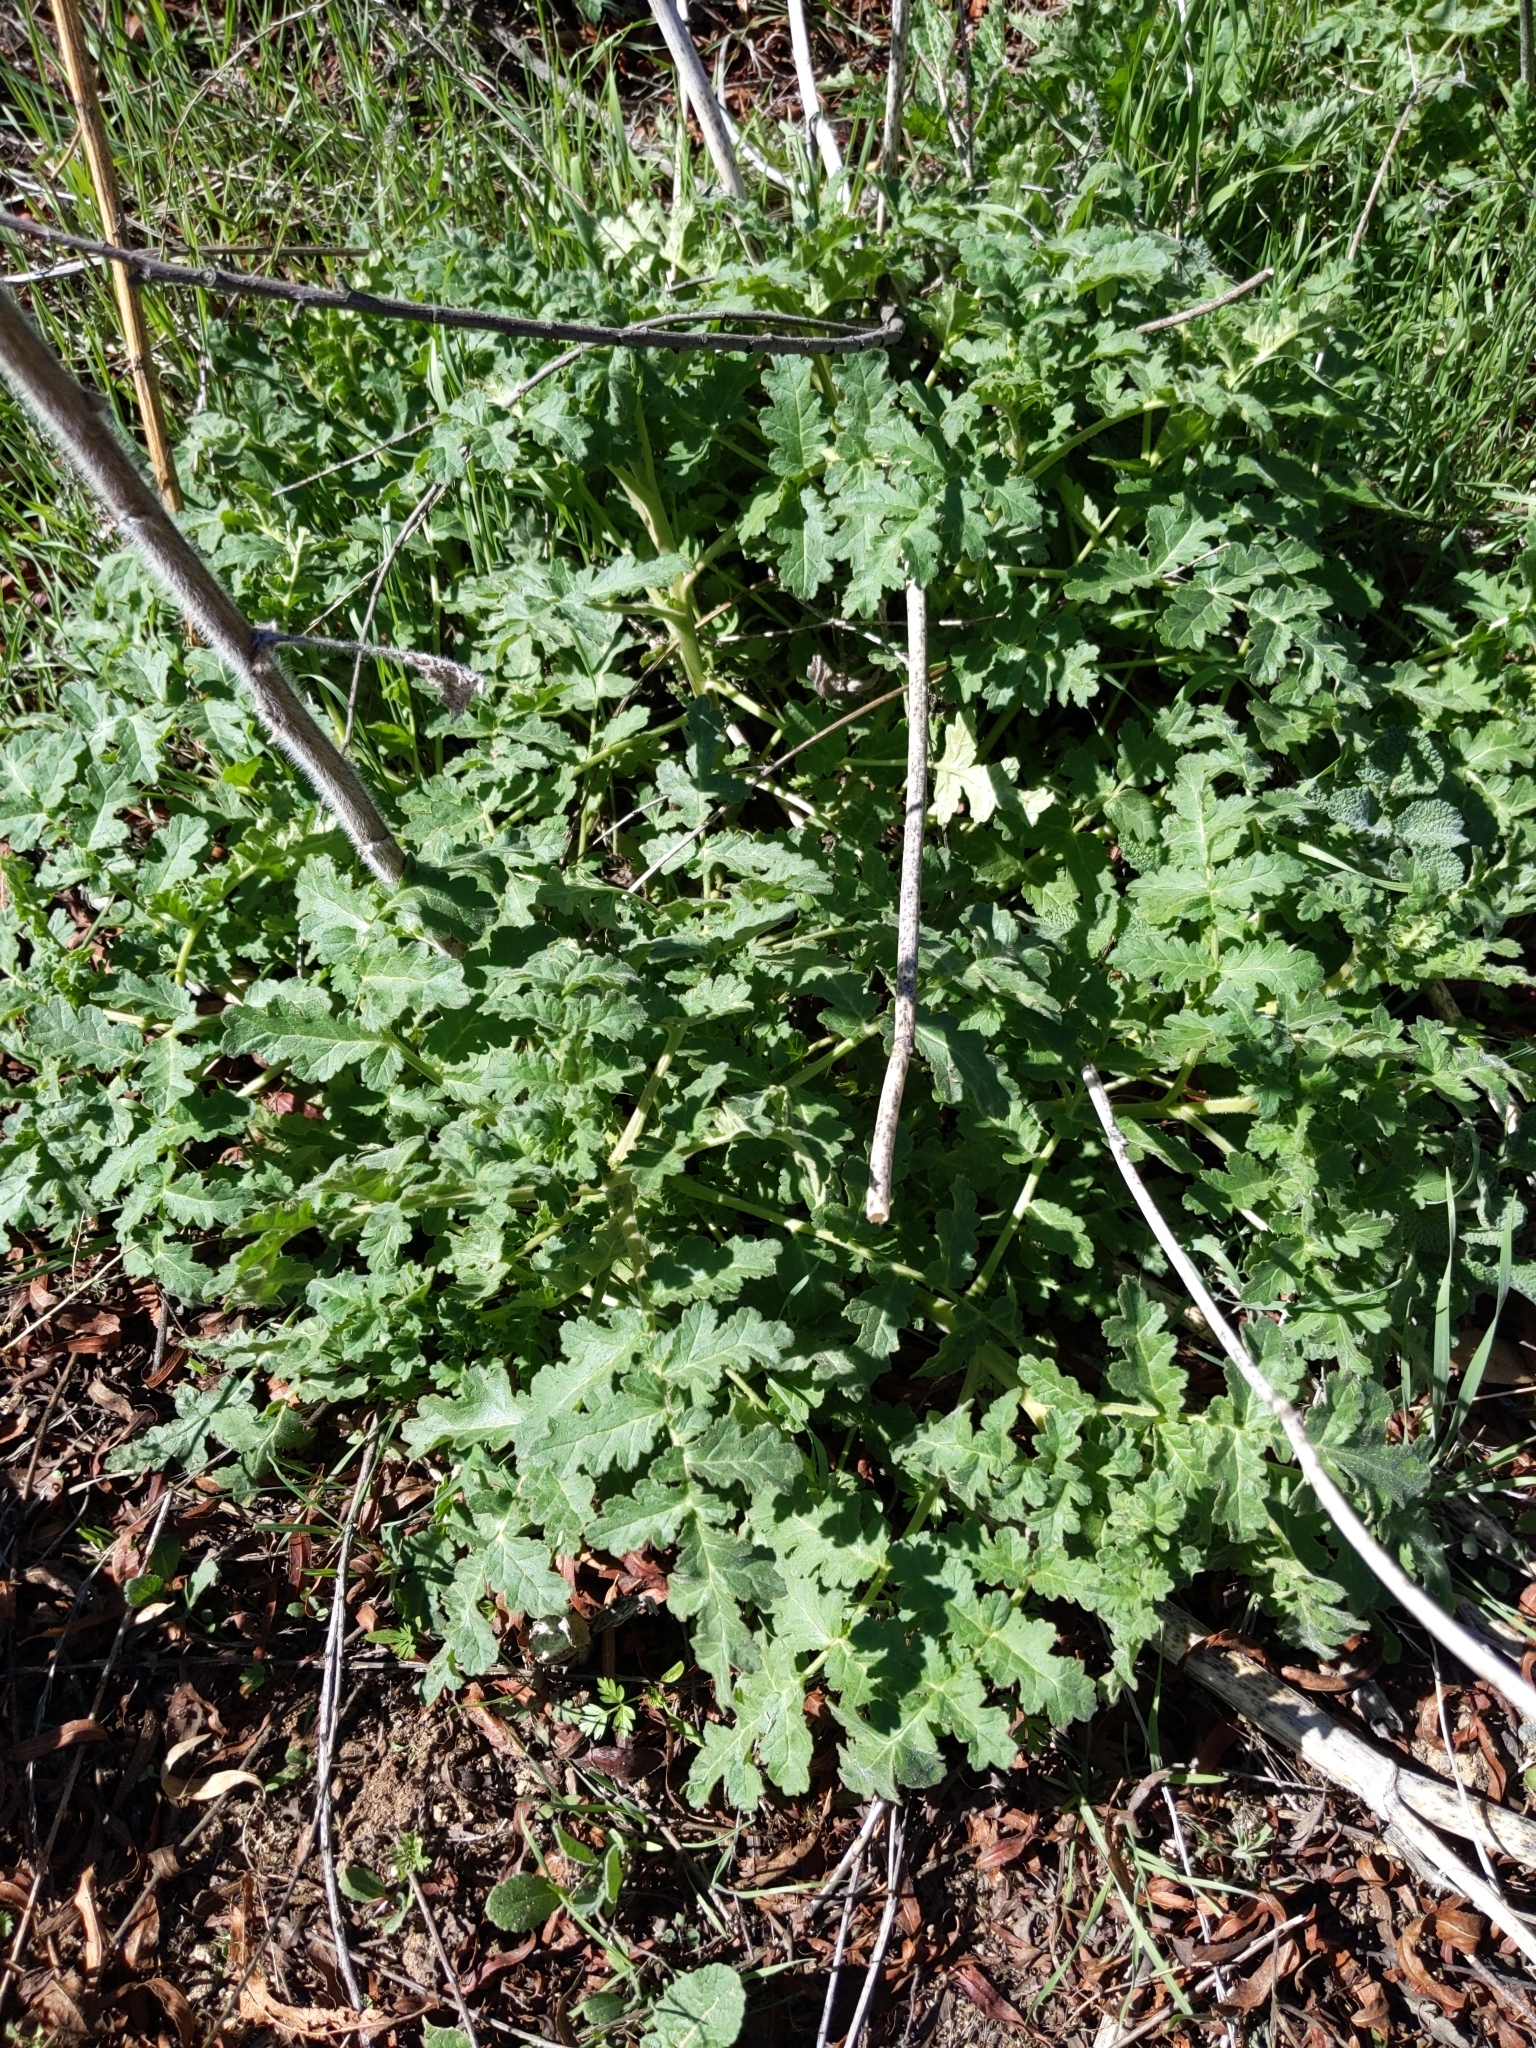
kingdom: Plantae
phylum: Tracheophyta
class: Magnoliopsida
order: Boraginales
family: Hydrophyllaceae
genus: Phacelia
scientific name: Phacelia ramosissima
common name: Branching phacelia
